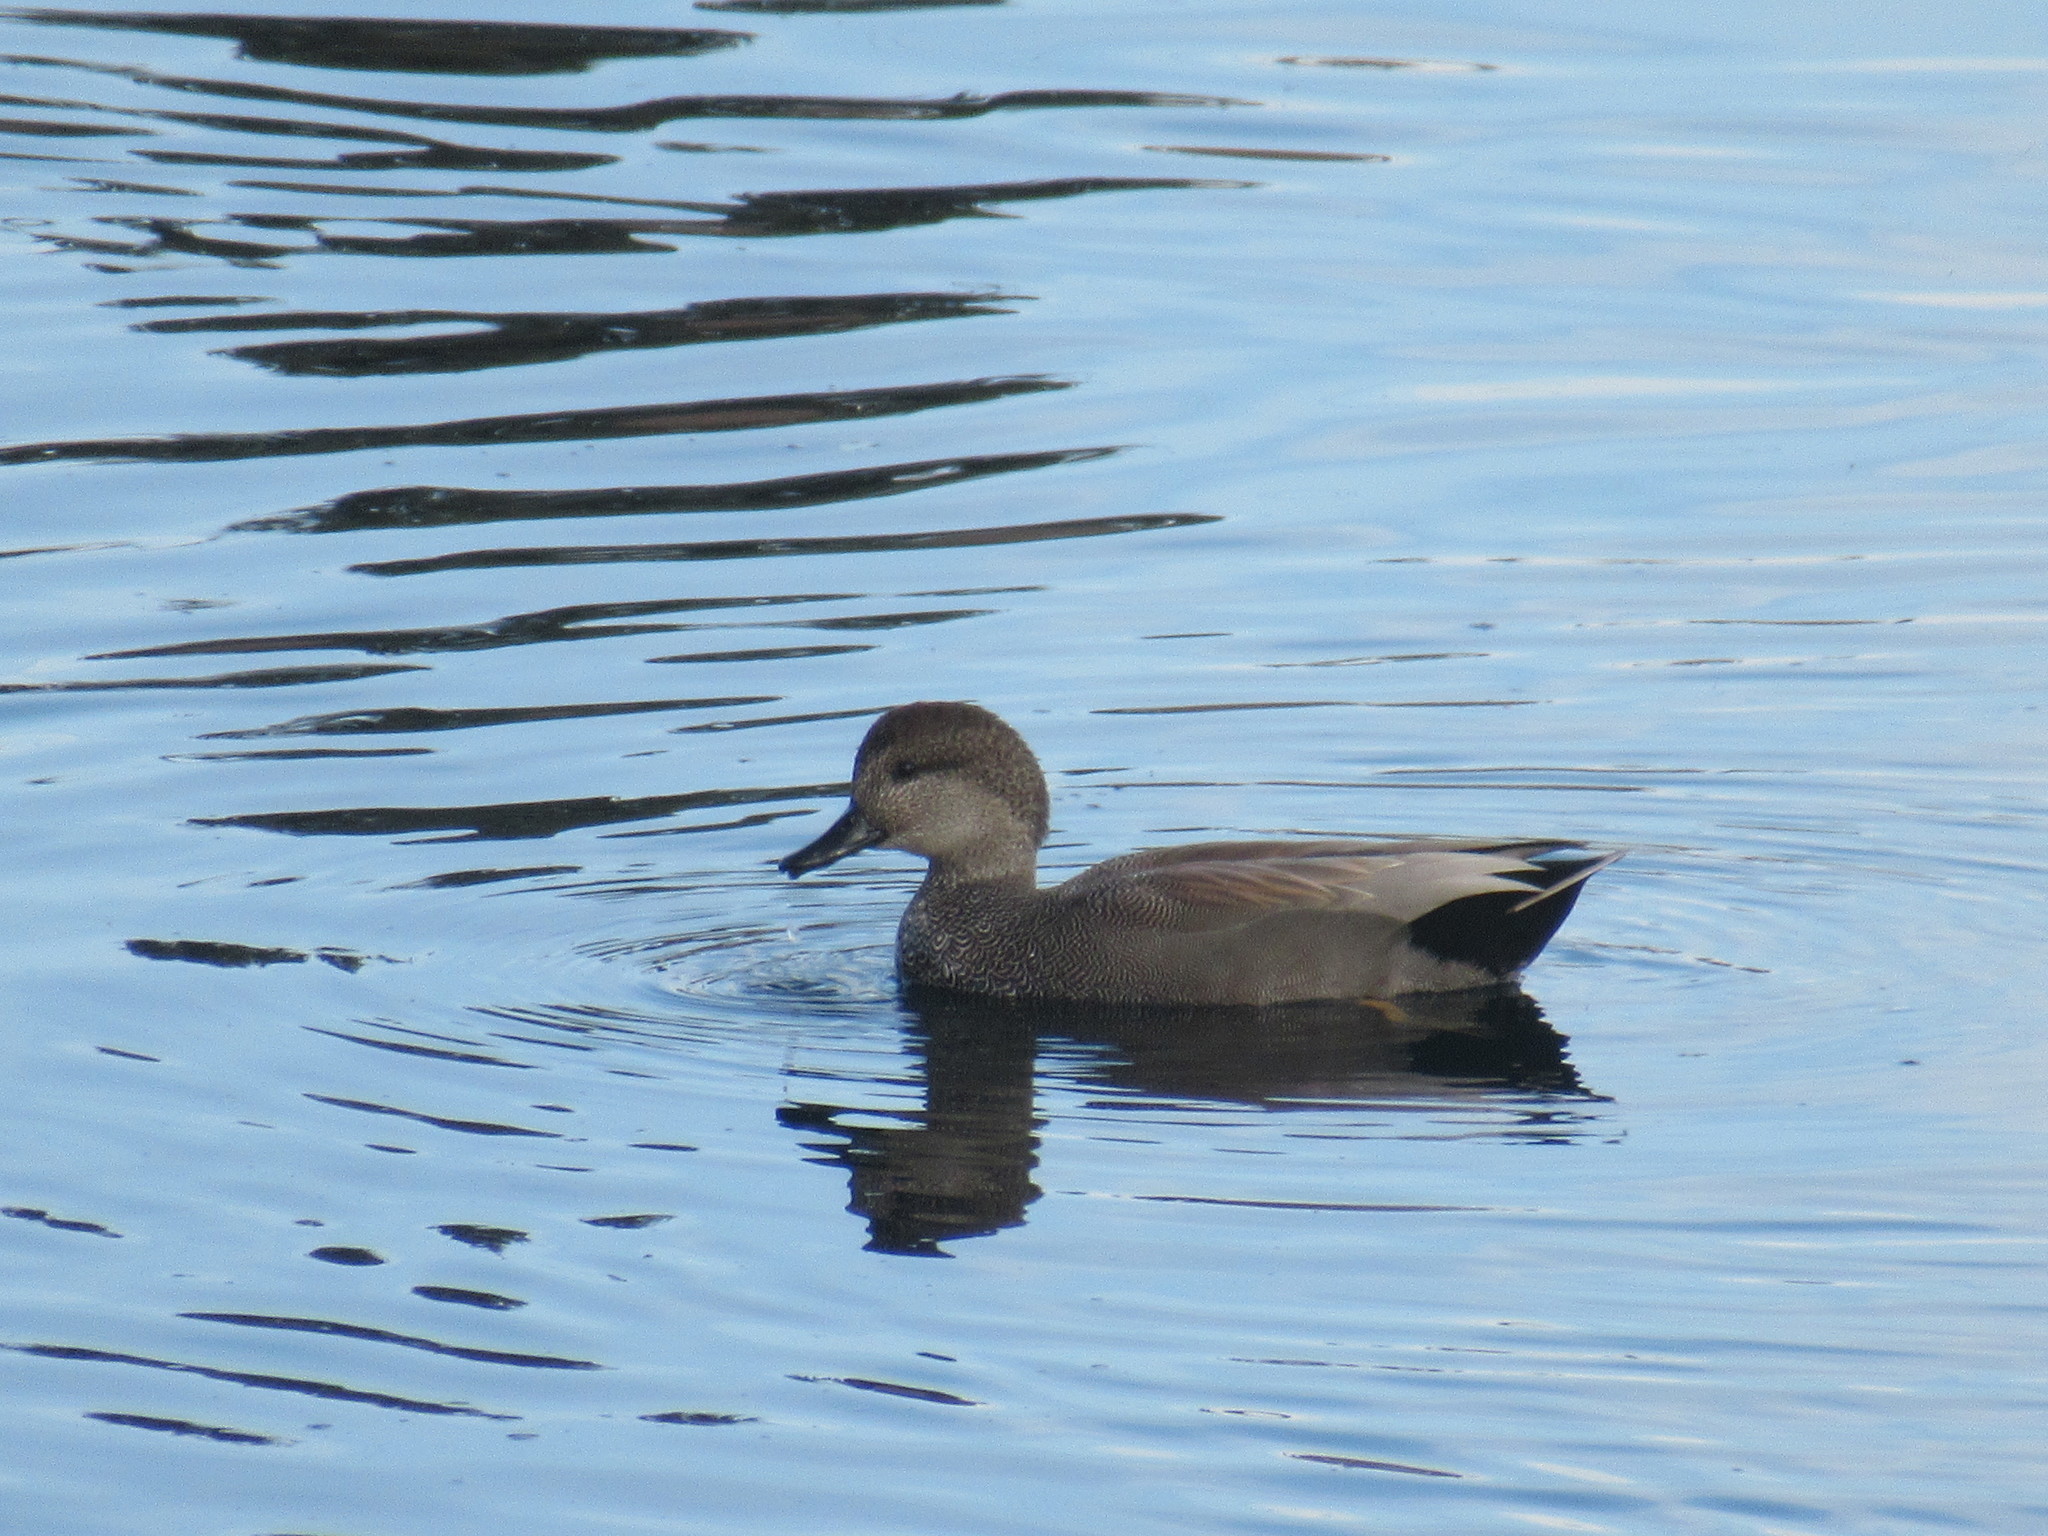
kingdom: Animalia
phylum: Chordata
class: Aves
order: Anseriformes
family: Anatidae
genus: Mareca
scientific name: Mareca strepera
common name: Gadwall
